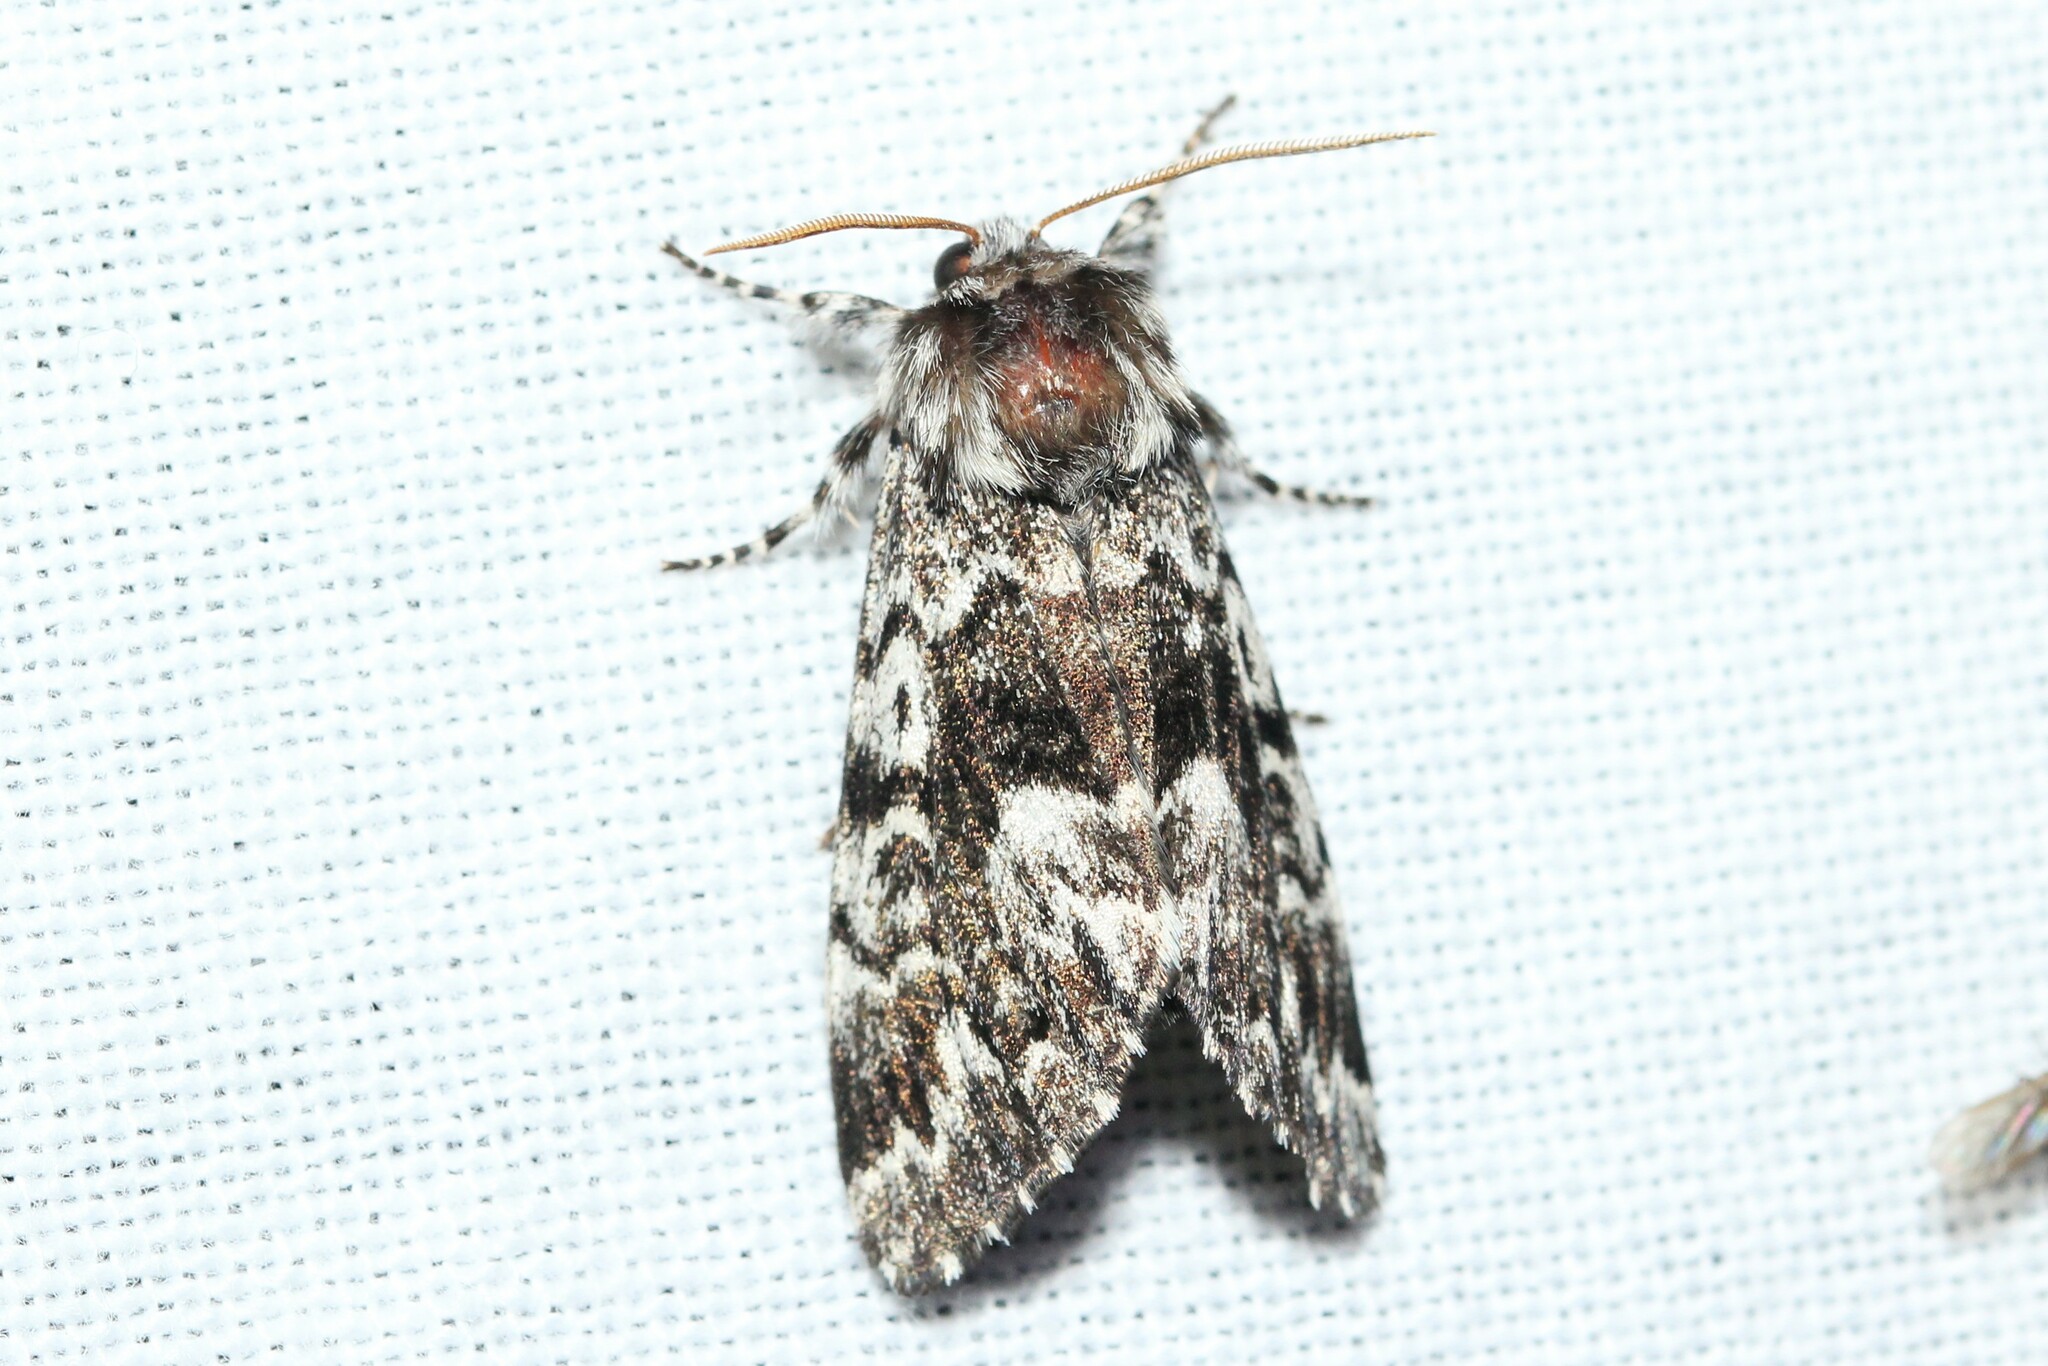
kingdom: Animalia
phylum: Arthropoda
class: Insecta
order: Lepidoptera
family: Noctuidae
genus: Panthea
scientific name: Panthea acronyctoides
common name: Black zigzag moth
